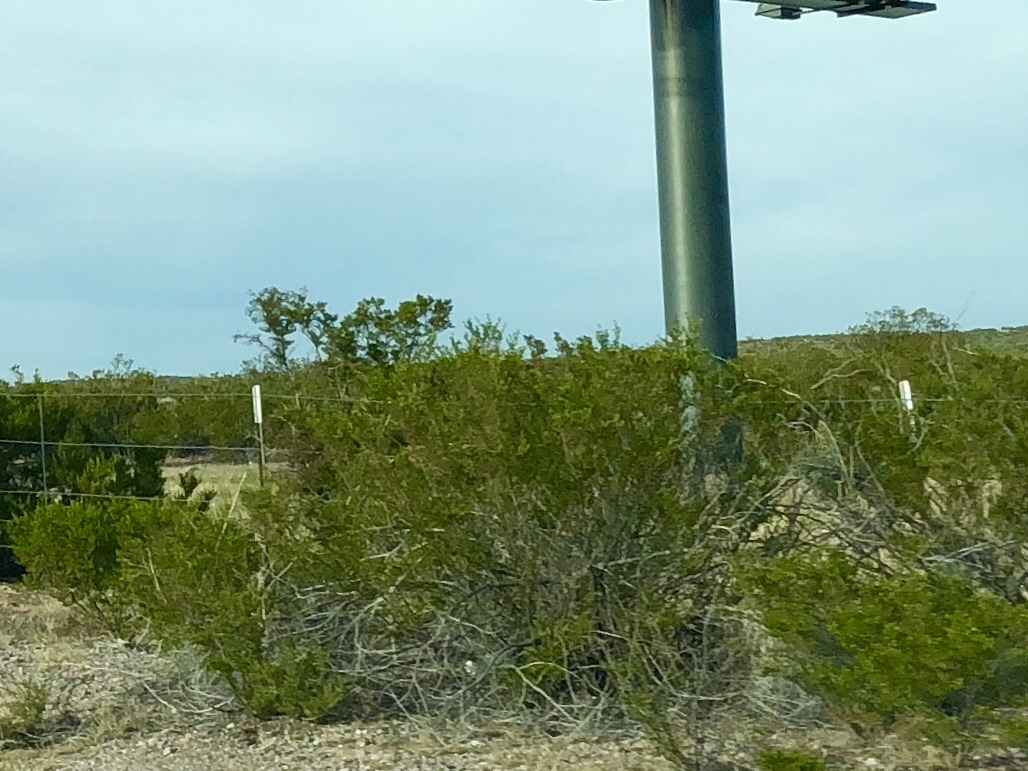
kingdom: Plantae
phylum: Tracheophyta
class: Magnoliopsida
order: Zygophyllales
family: Zygophyllaceae
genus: Larrea
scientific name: Larrea tridentata
